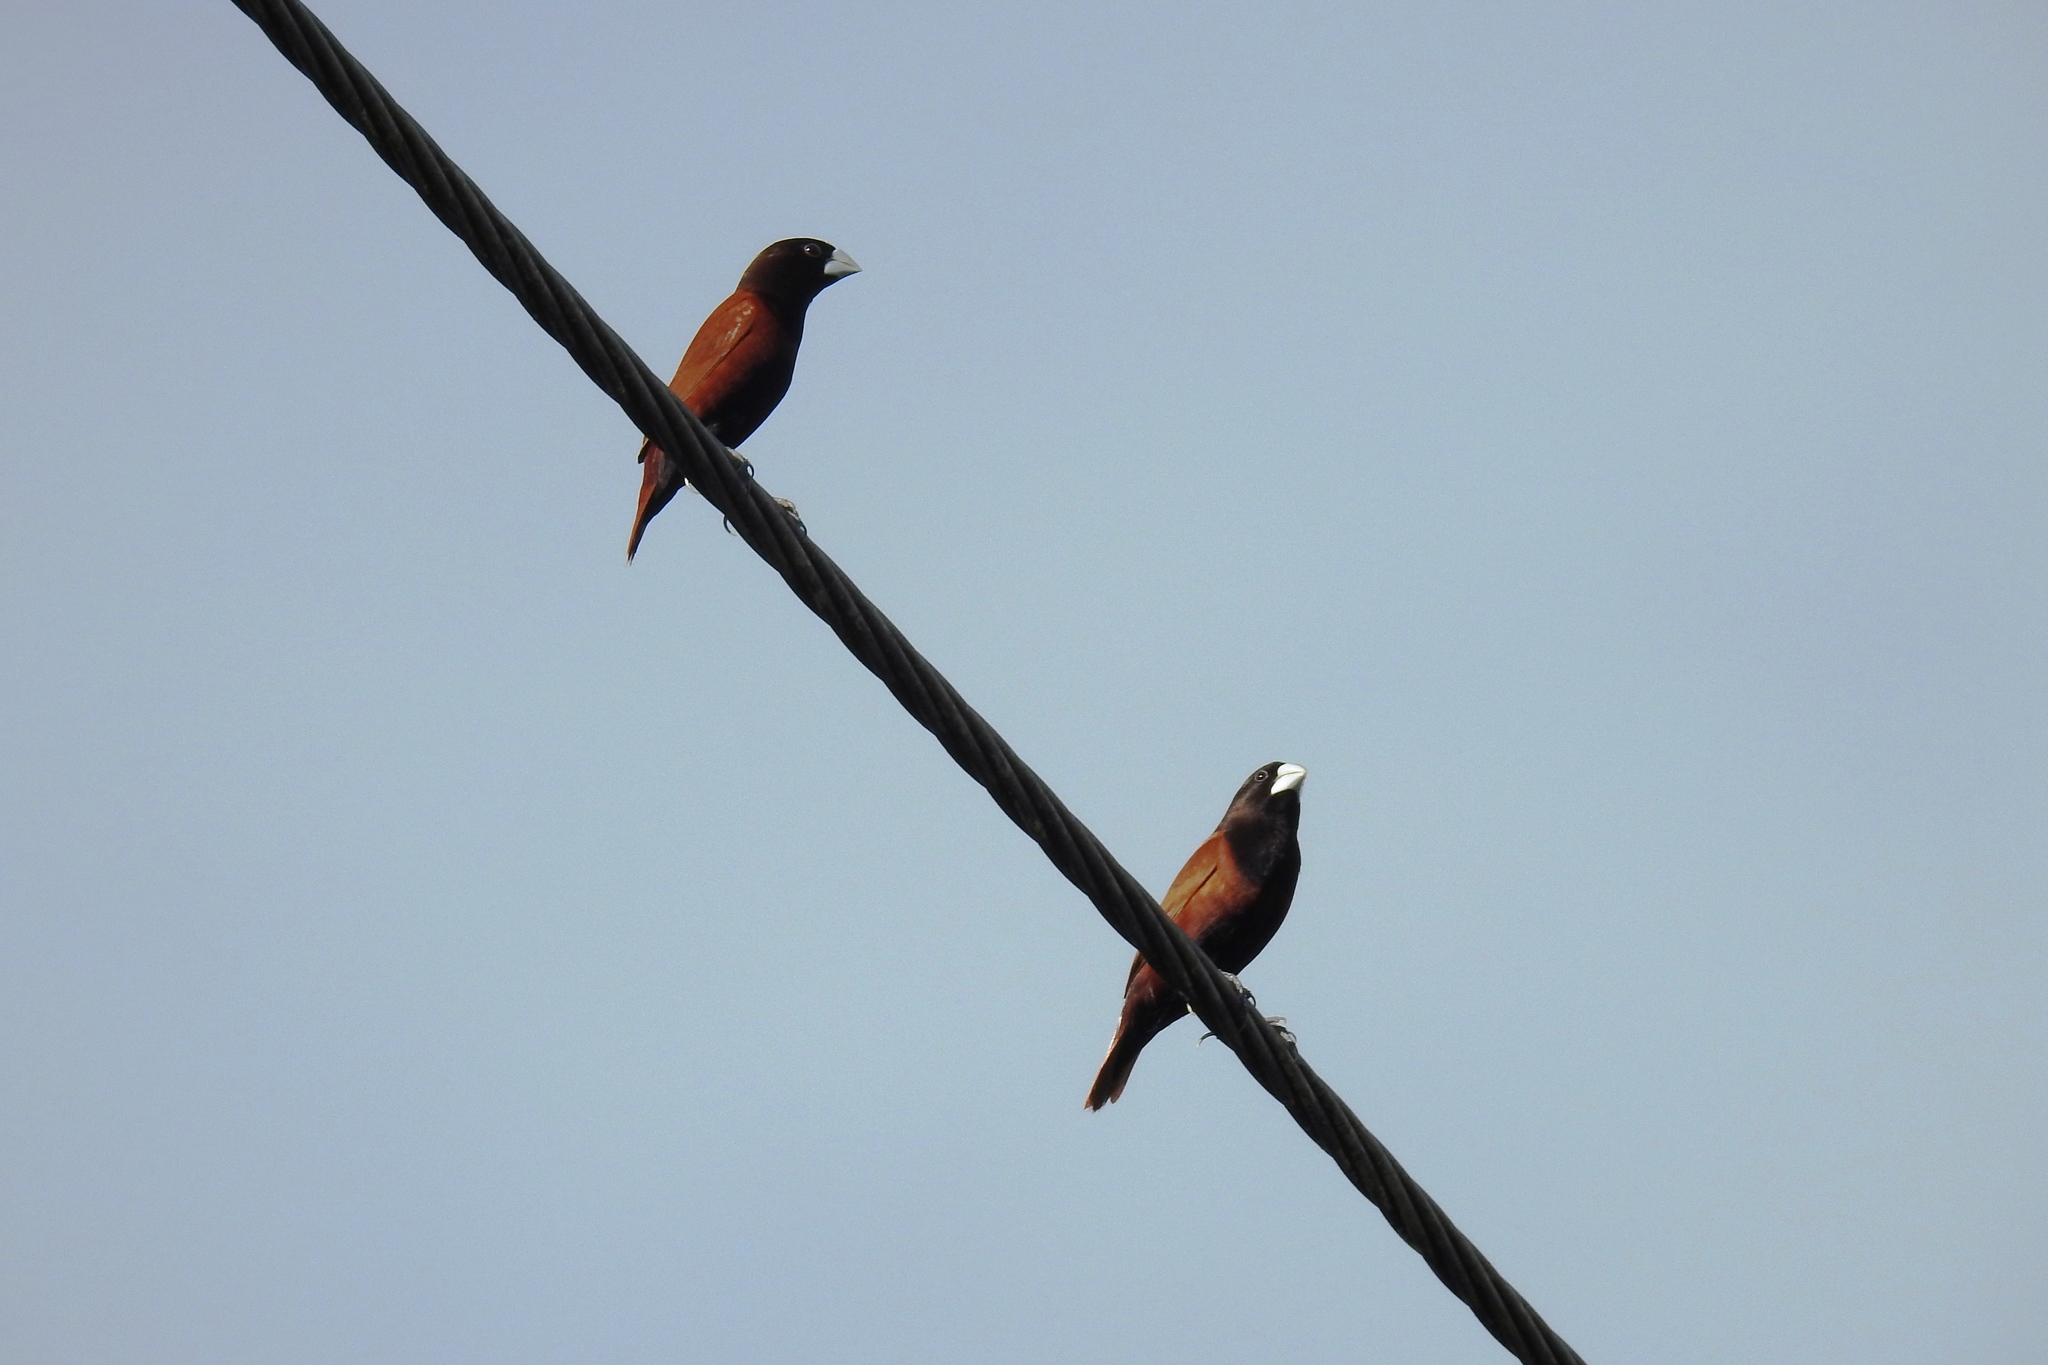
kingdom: Animalia
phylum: Chordata
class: Aves
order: Passeriformes
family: Estrildidae
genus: Lonchura
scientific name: Lonchura atricapilla
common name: Chestnut munia
